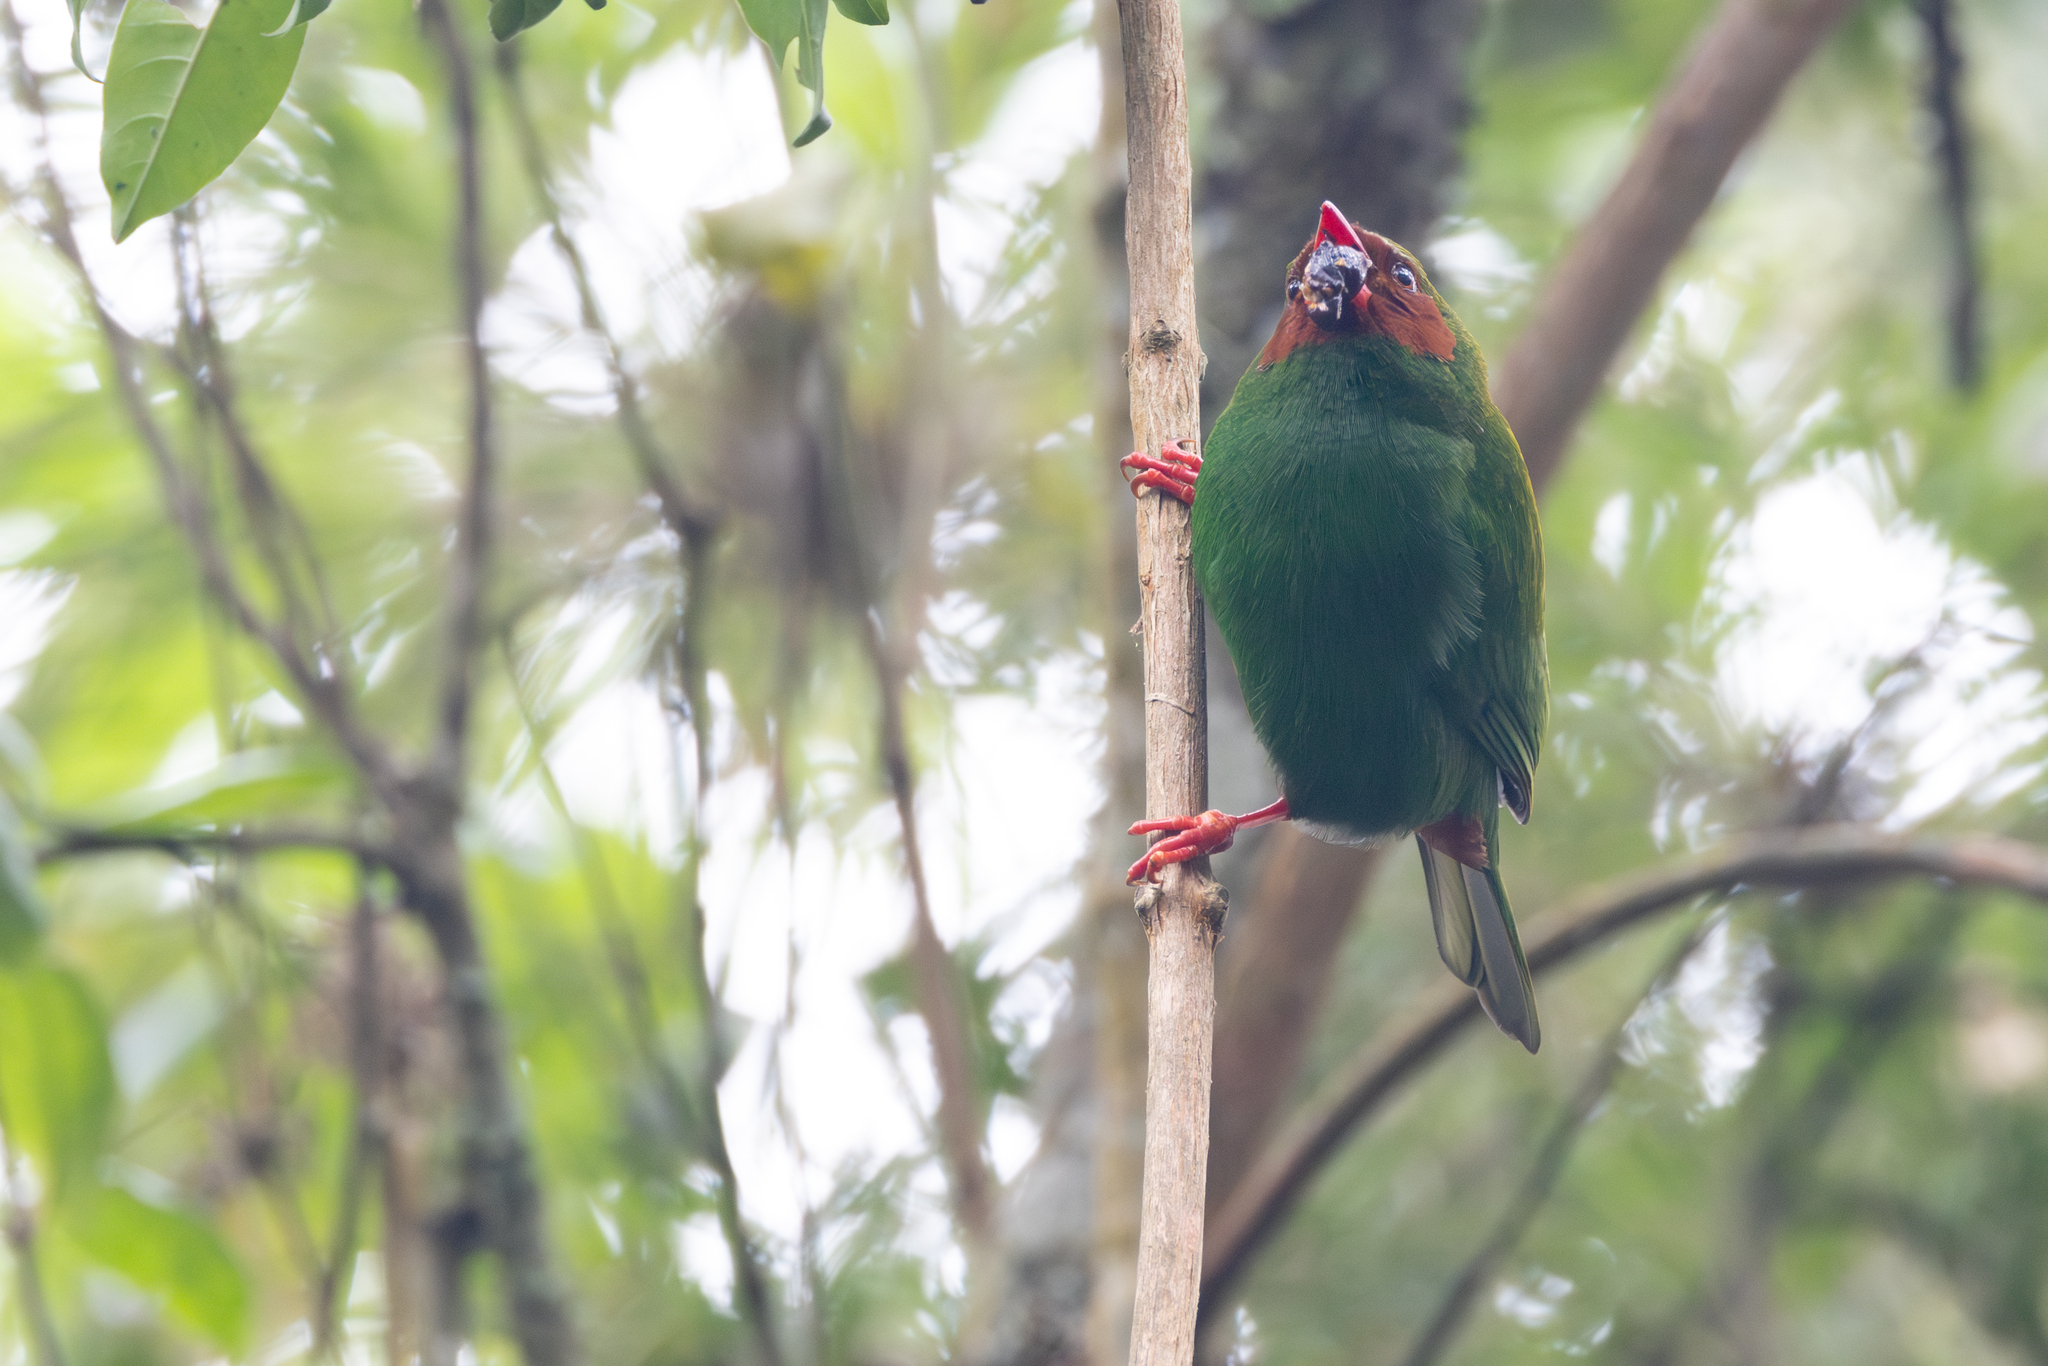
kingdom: Animalia
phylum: Chordata
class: Aves
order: Passeriformes
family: Thraupidae
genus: Chlorornis
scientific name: Chlorornis riefferii
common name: Grass-green tanager
